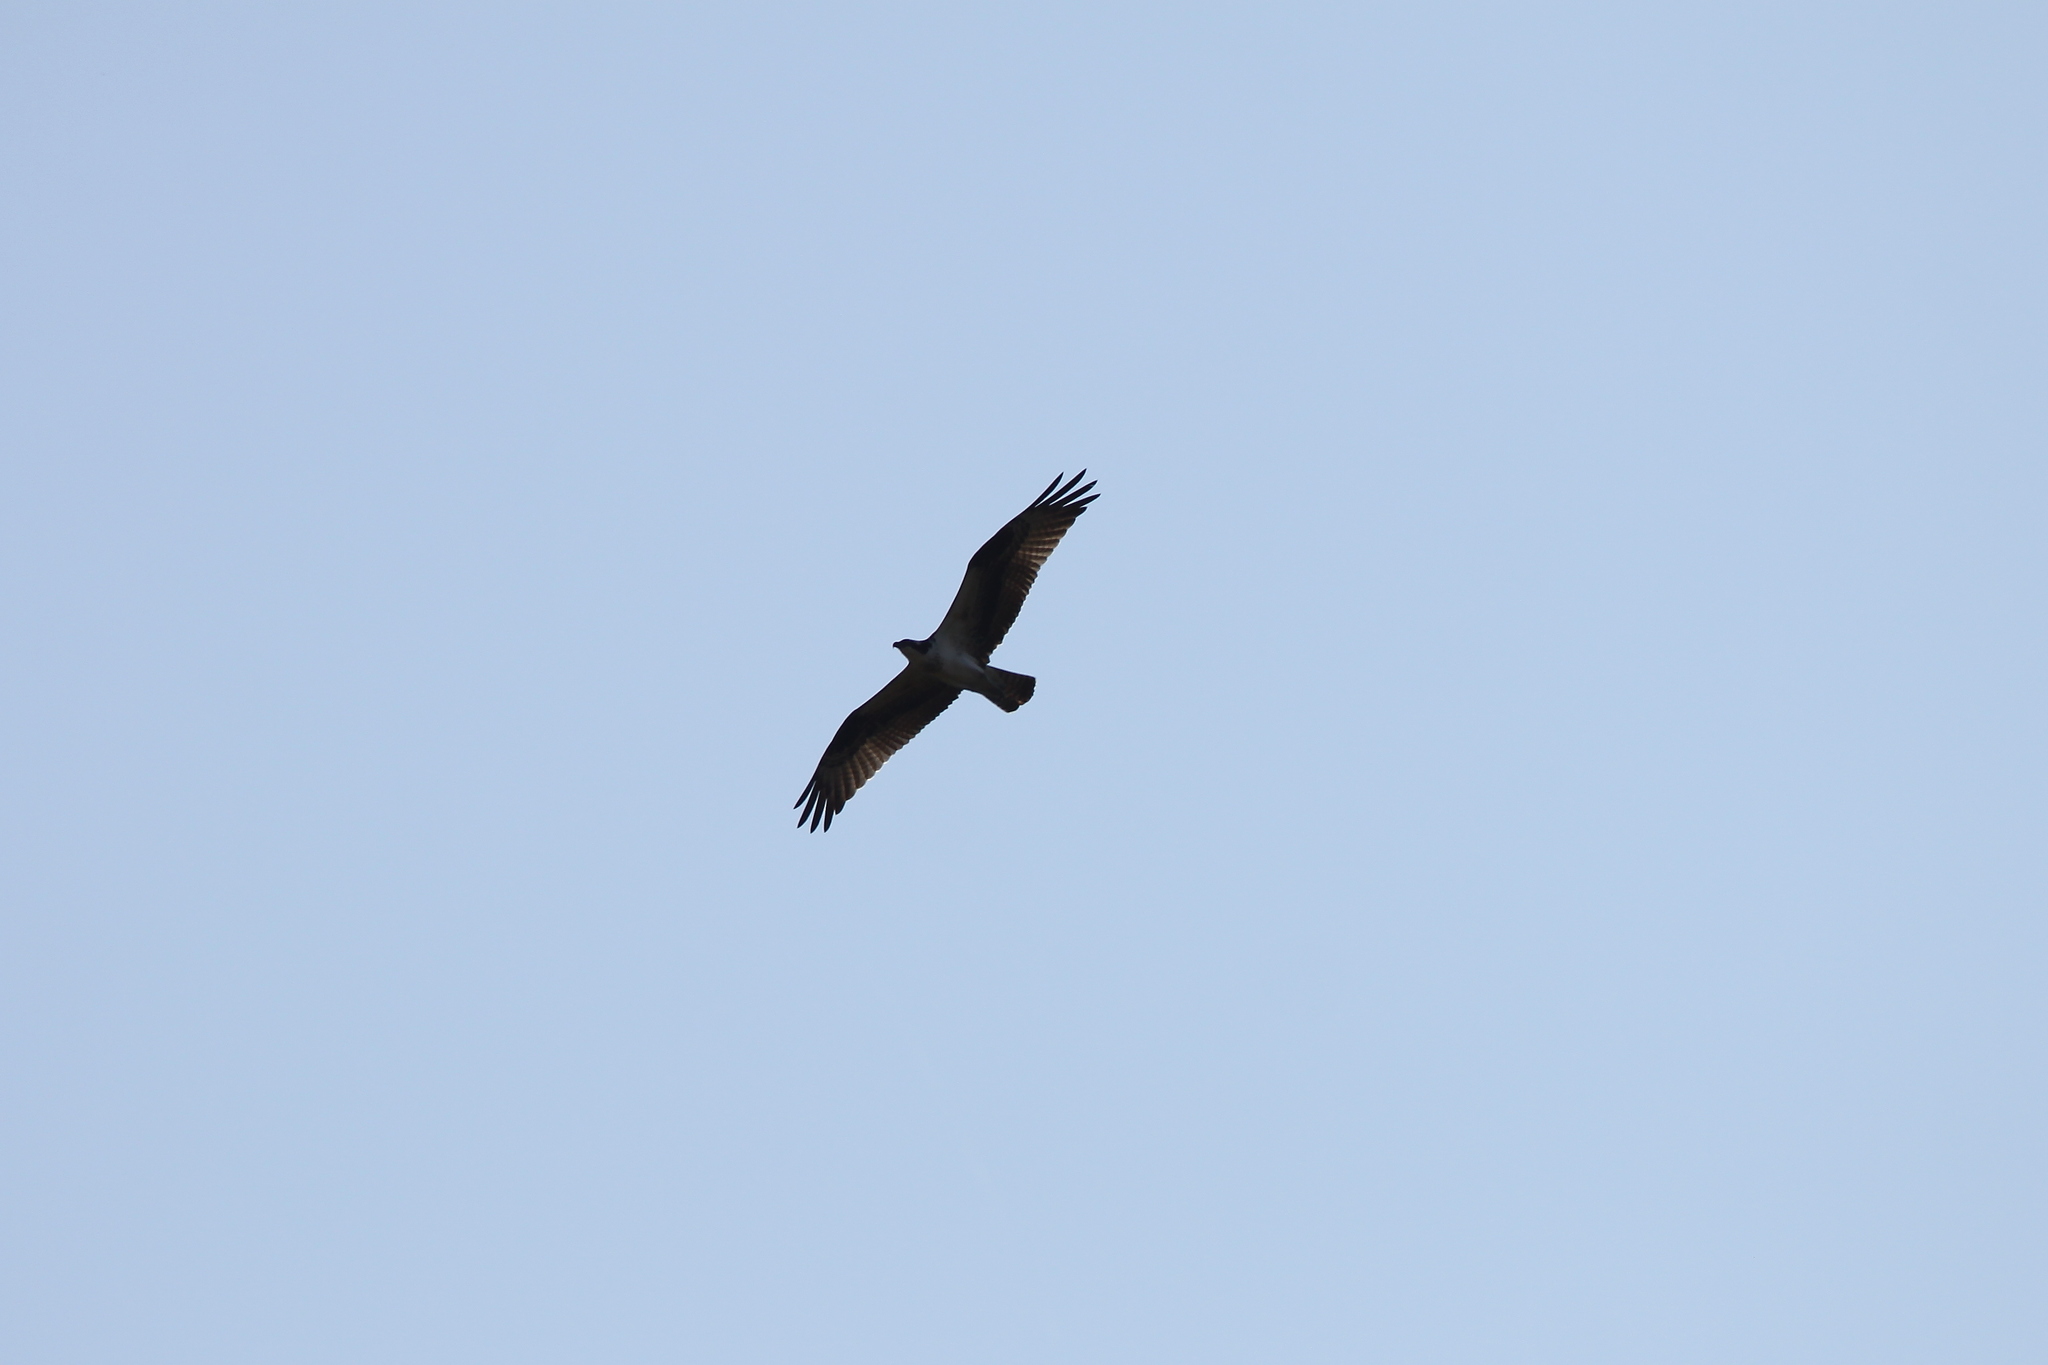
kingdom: Animalia
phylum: Chordata
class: Aves
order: Accipitriformes
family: Pandionidae
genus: Pandion
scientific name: Pandion haliaetus
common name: Osprey
